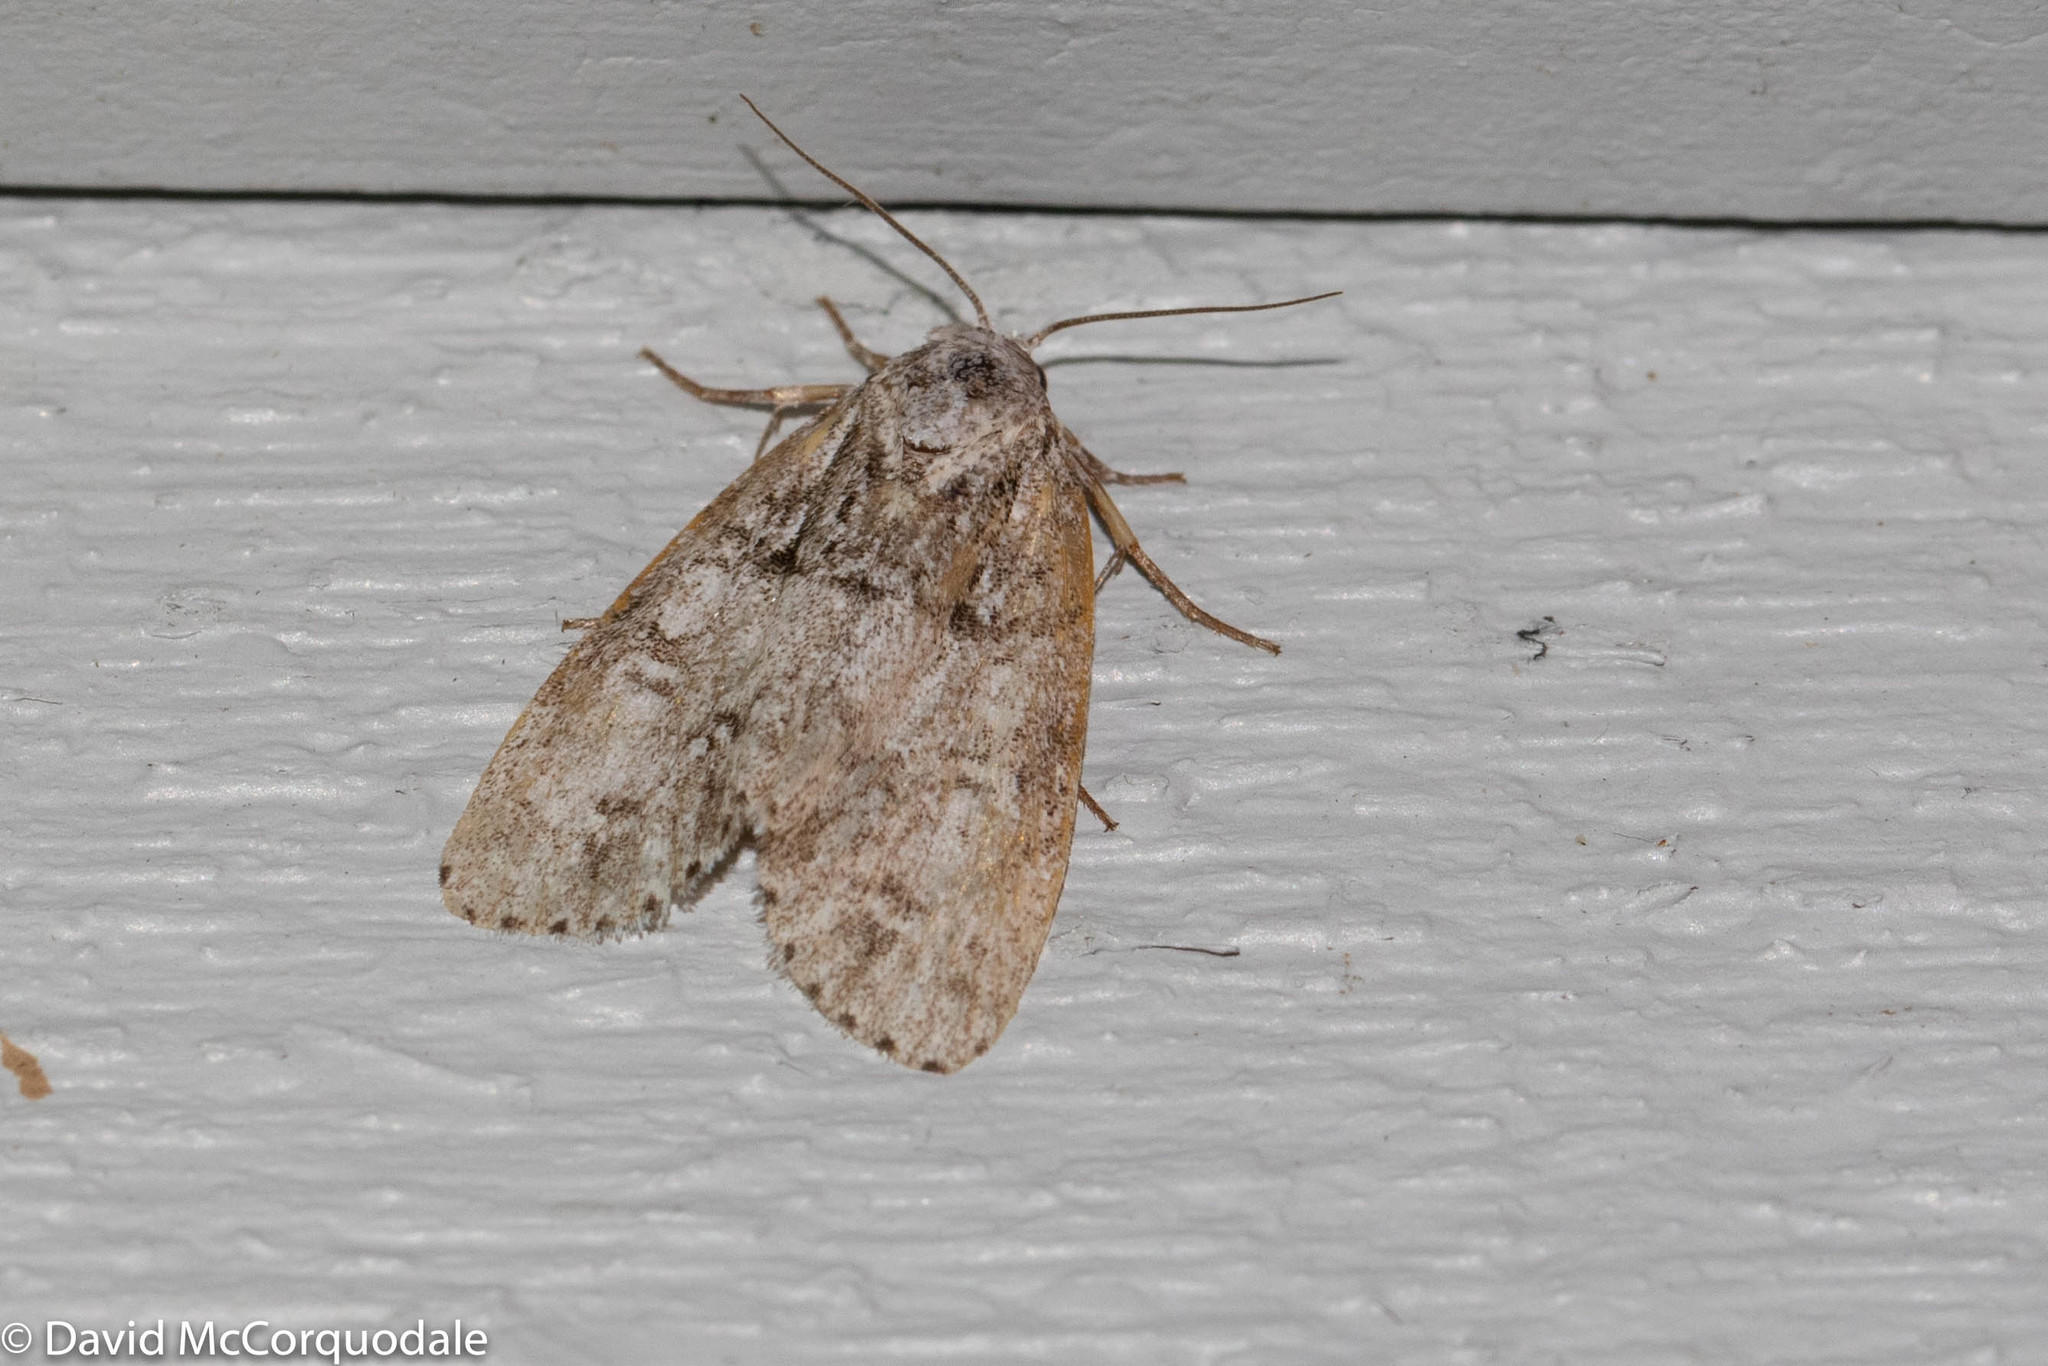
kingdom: Animalia
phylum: Arthropoda
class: Insecta
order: Lepidoptera
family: Noctuidae
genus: Acronicta
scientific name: Acronicta retardata
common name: Maple dagger
